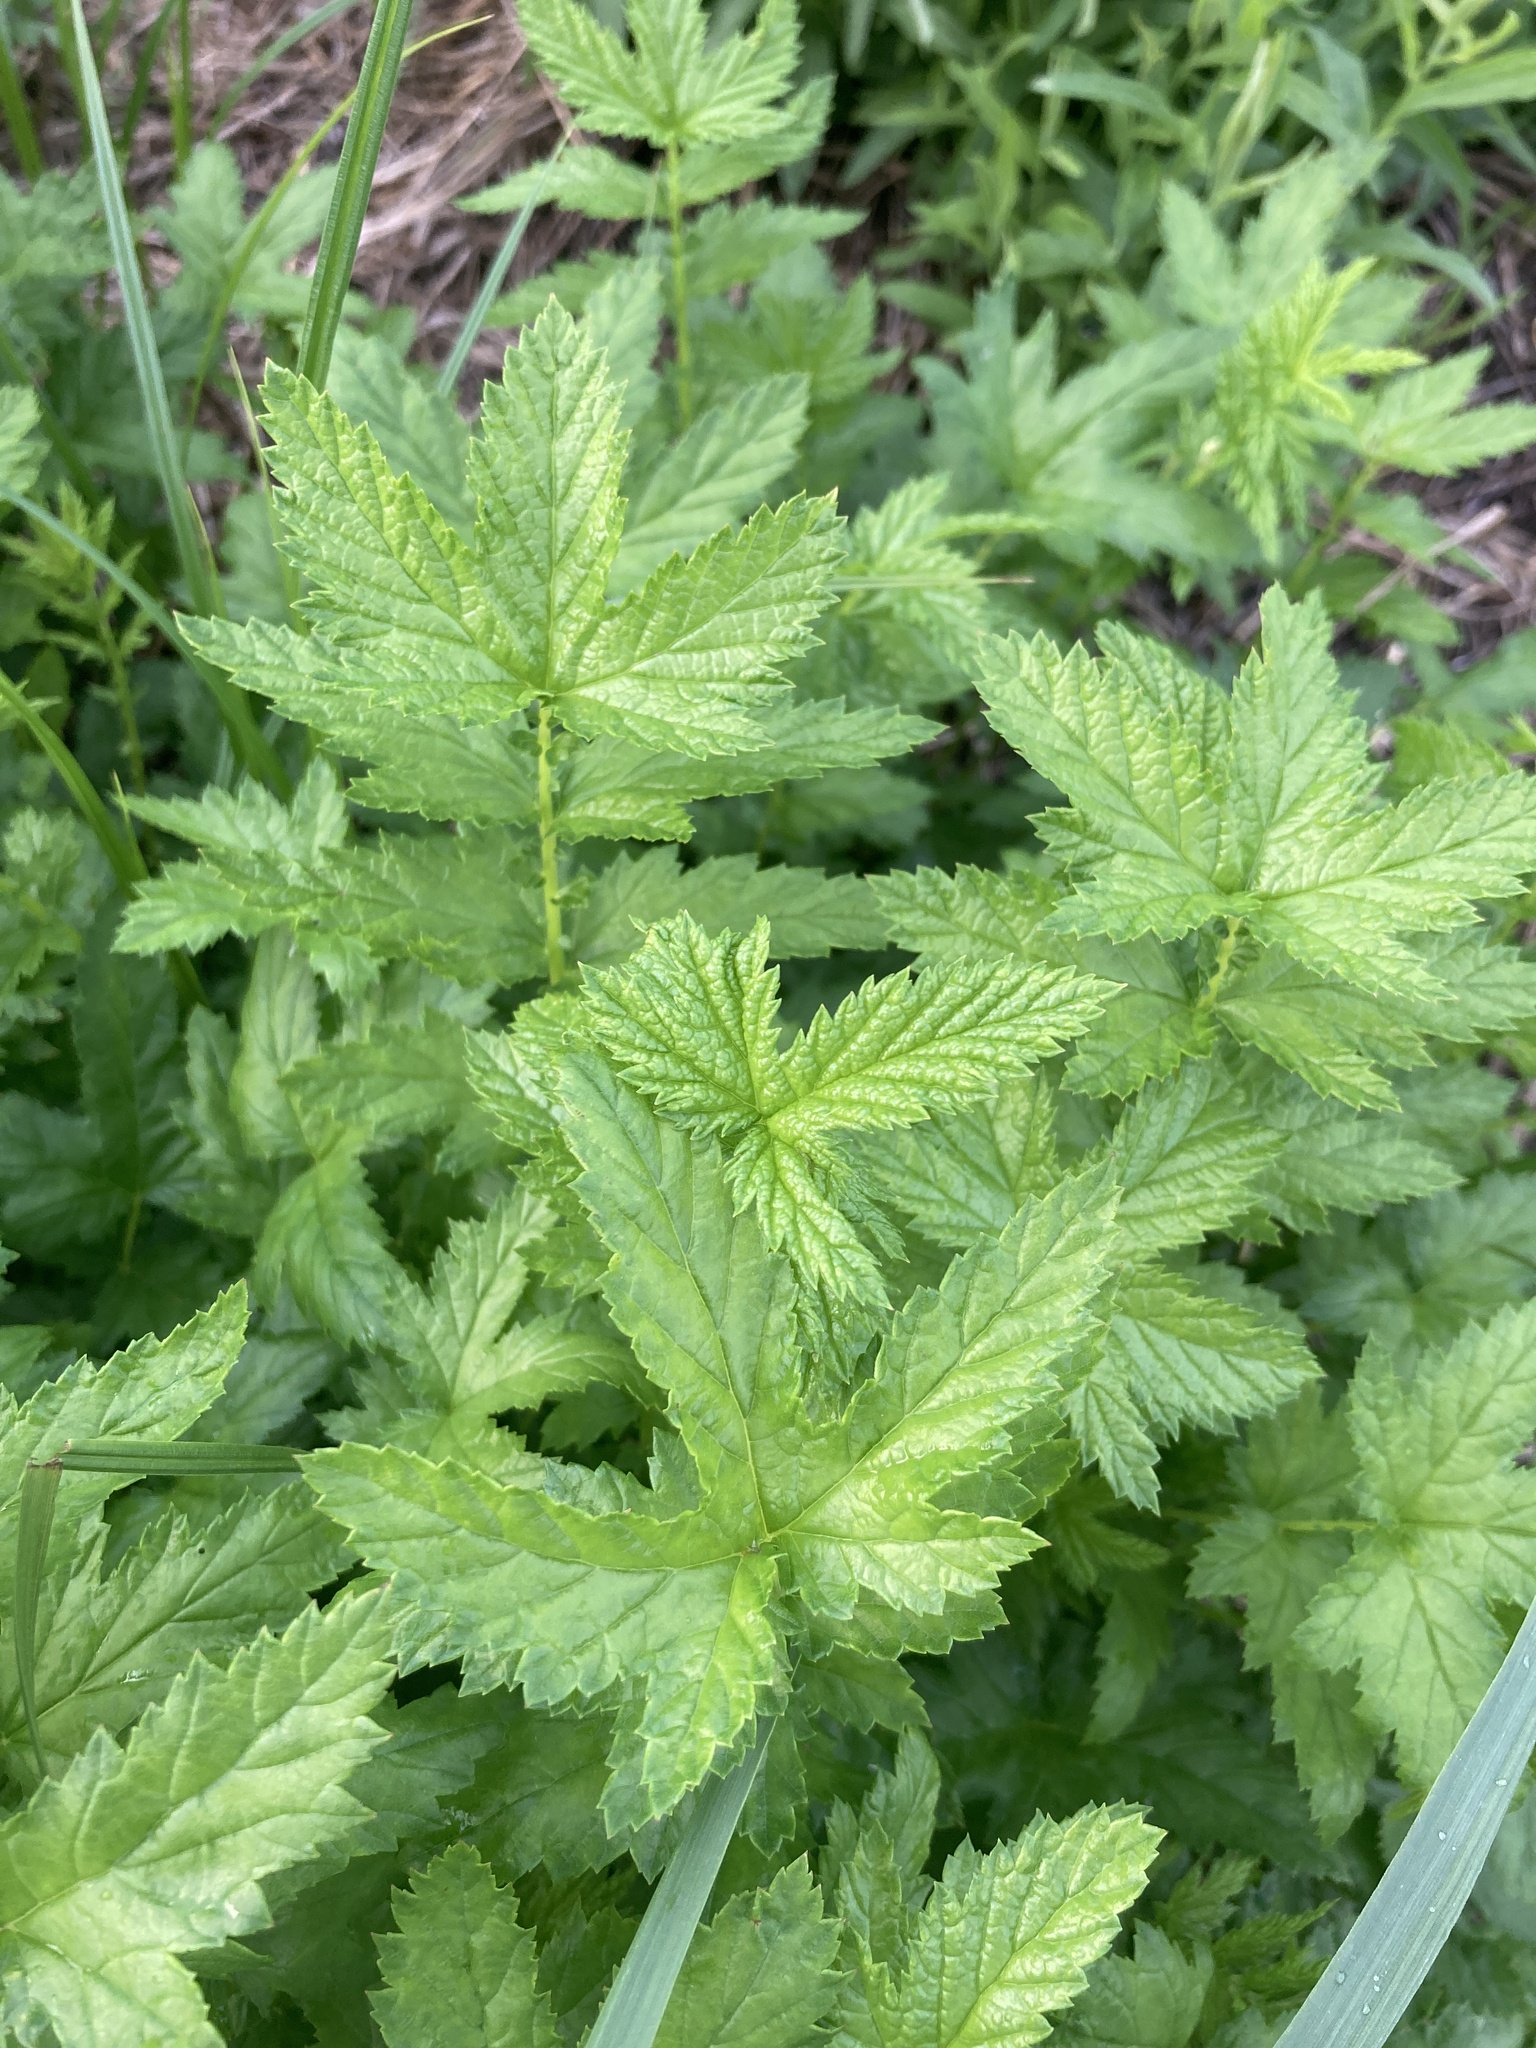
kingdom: Plantae
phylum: Tracheophyta
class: Magnoliopsida
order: Rosales
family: Rosaceae
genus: Filipendula
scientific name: Filipendula ulmaria
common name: Meadowsweet
